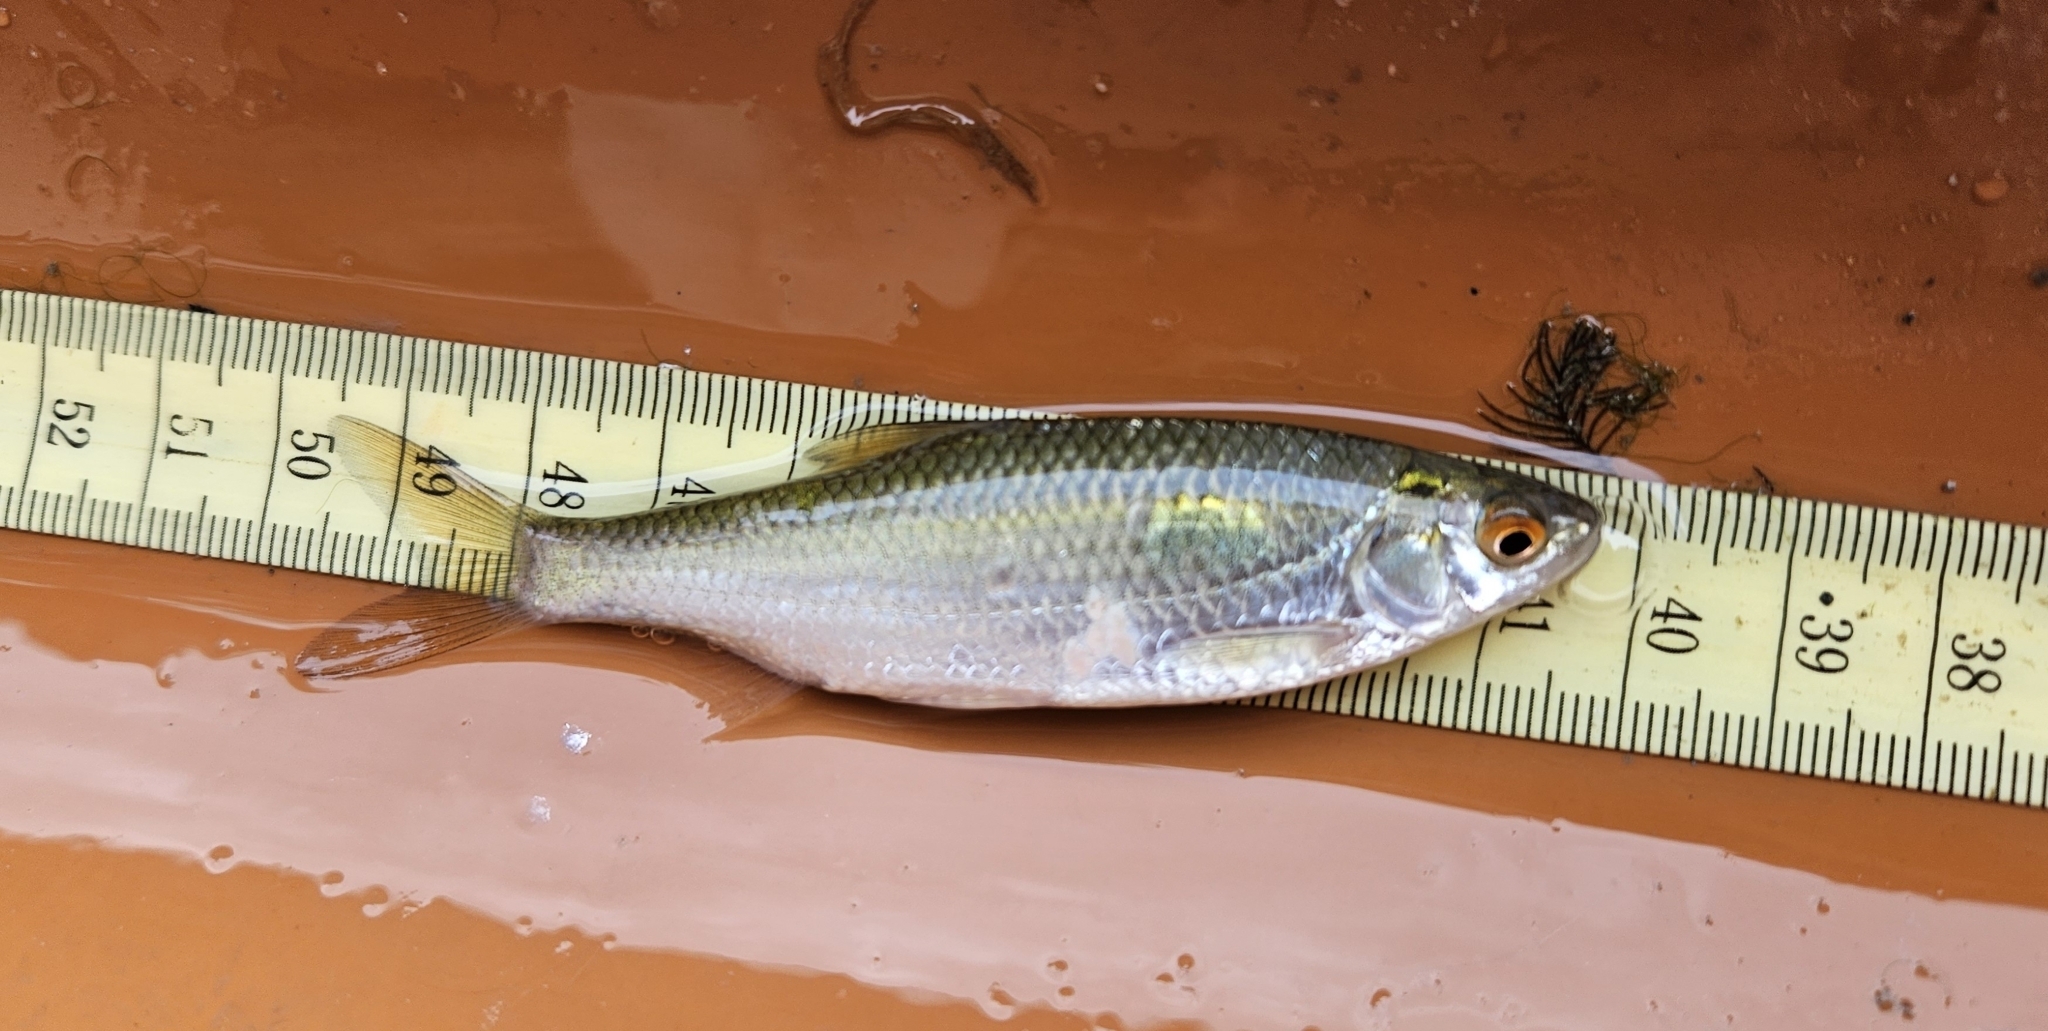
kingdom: Animalia
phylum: Chordata
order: Cypriniformes
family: Cyprinidae
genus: Rutilus
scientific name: Rutilus rutilus
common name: Roach
